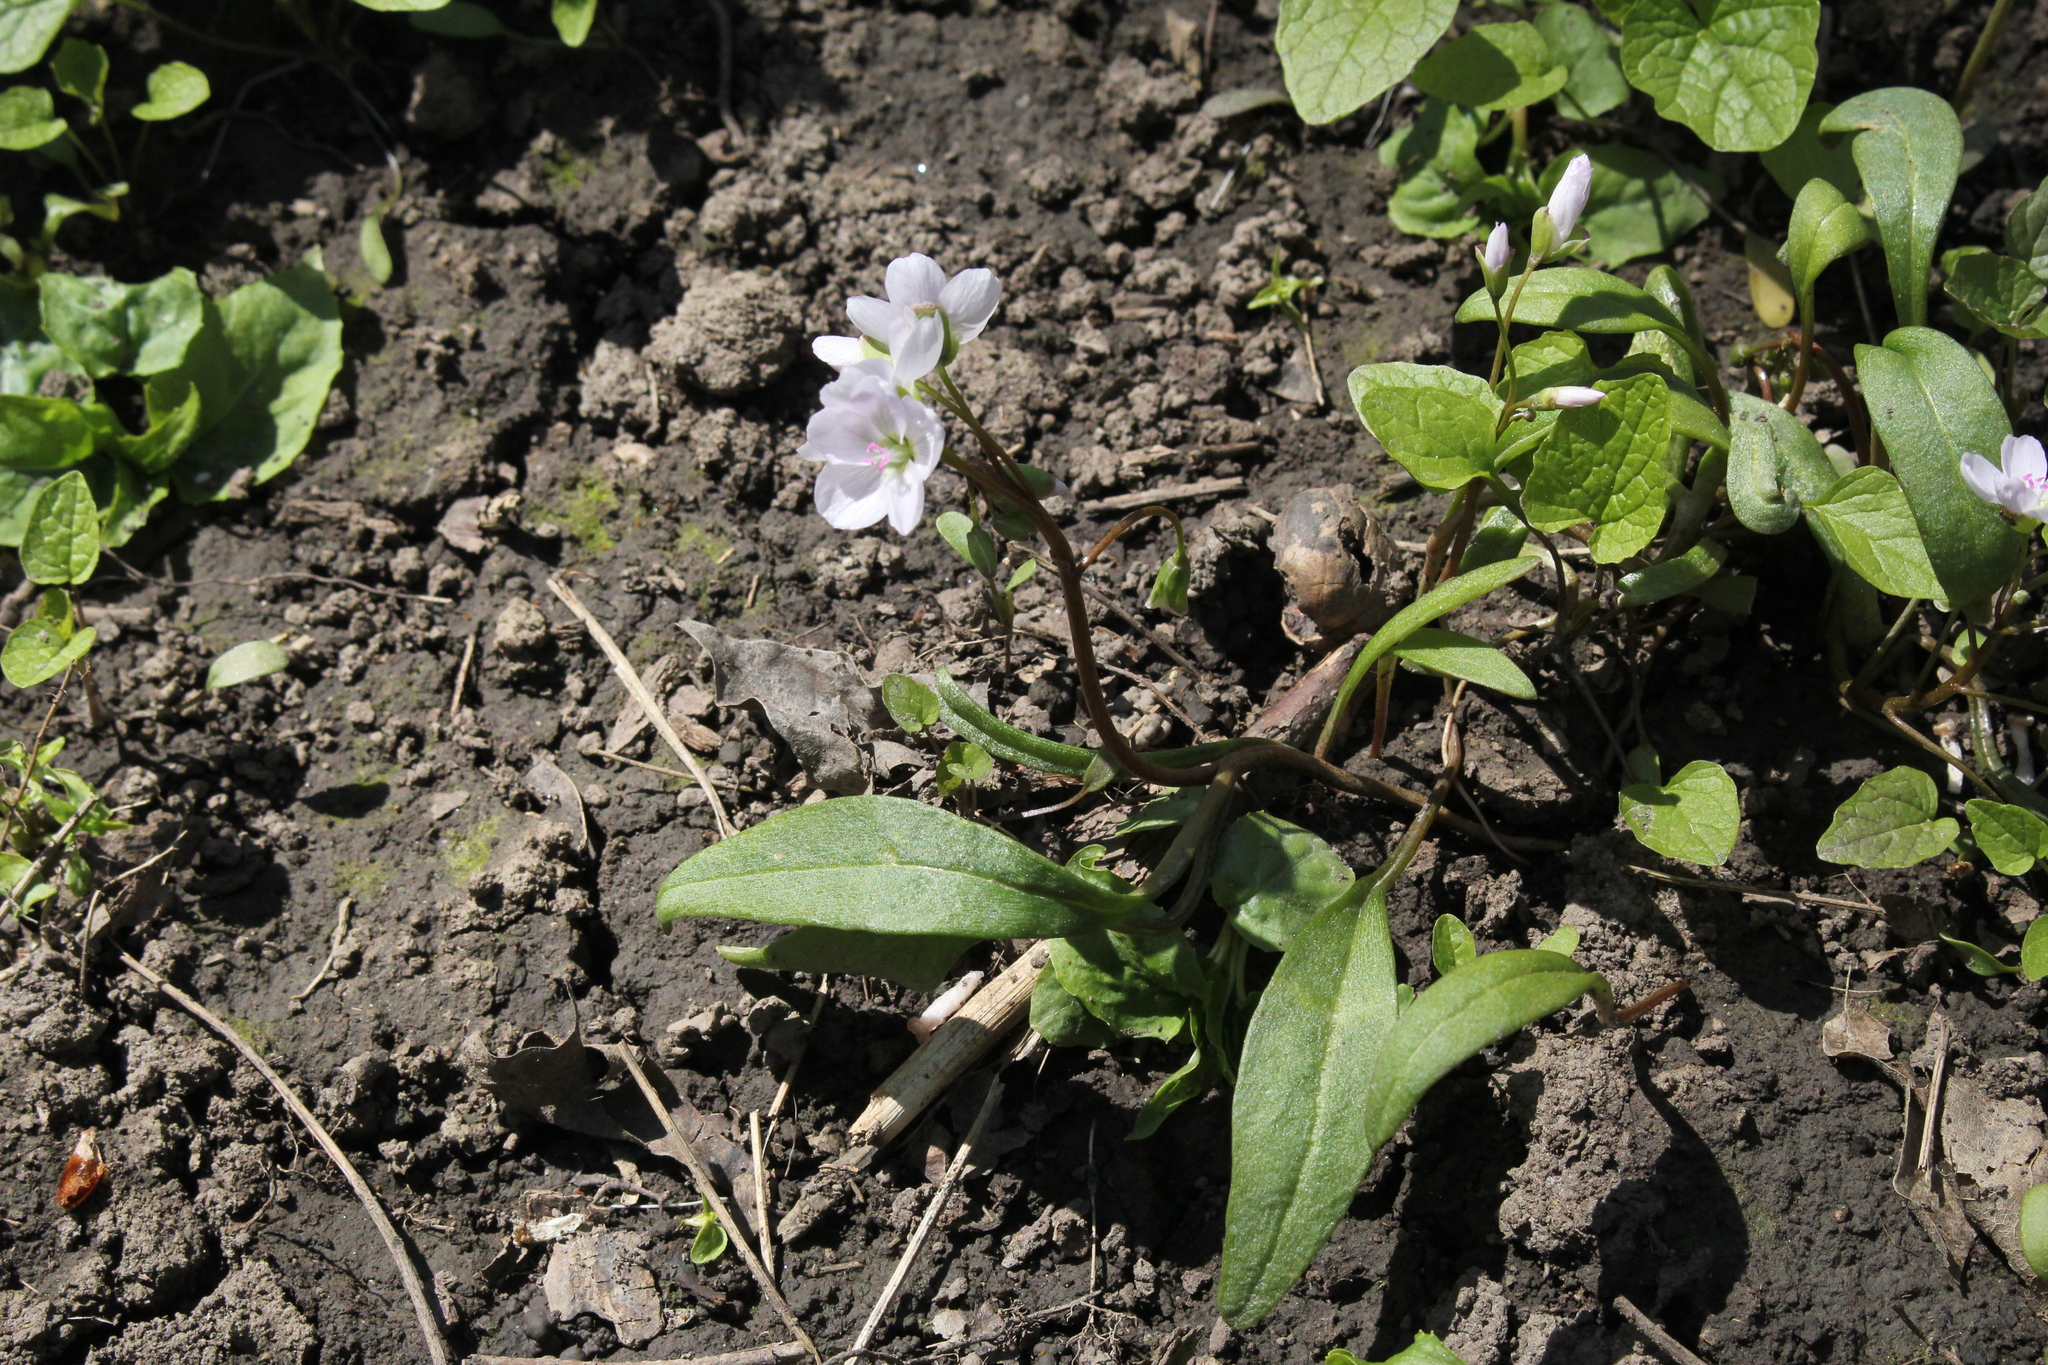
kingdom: Plantae
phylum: Tracheophyta
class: Magnoliopsida
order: Caryophyllales
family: Montiaceae
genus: Claytonia
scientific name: Claytonia virginica
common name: Virginia springbeauty
